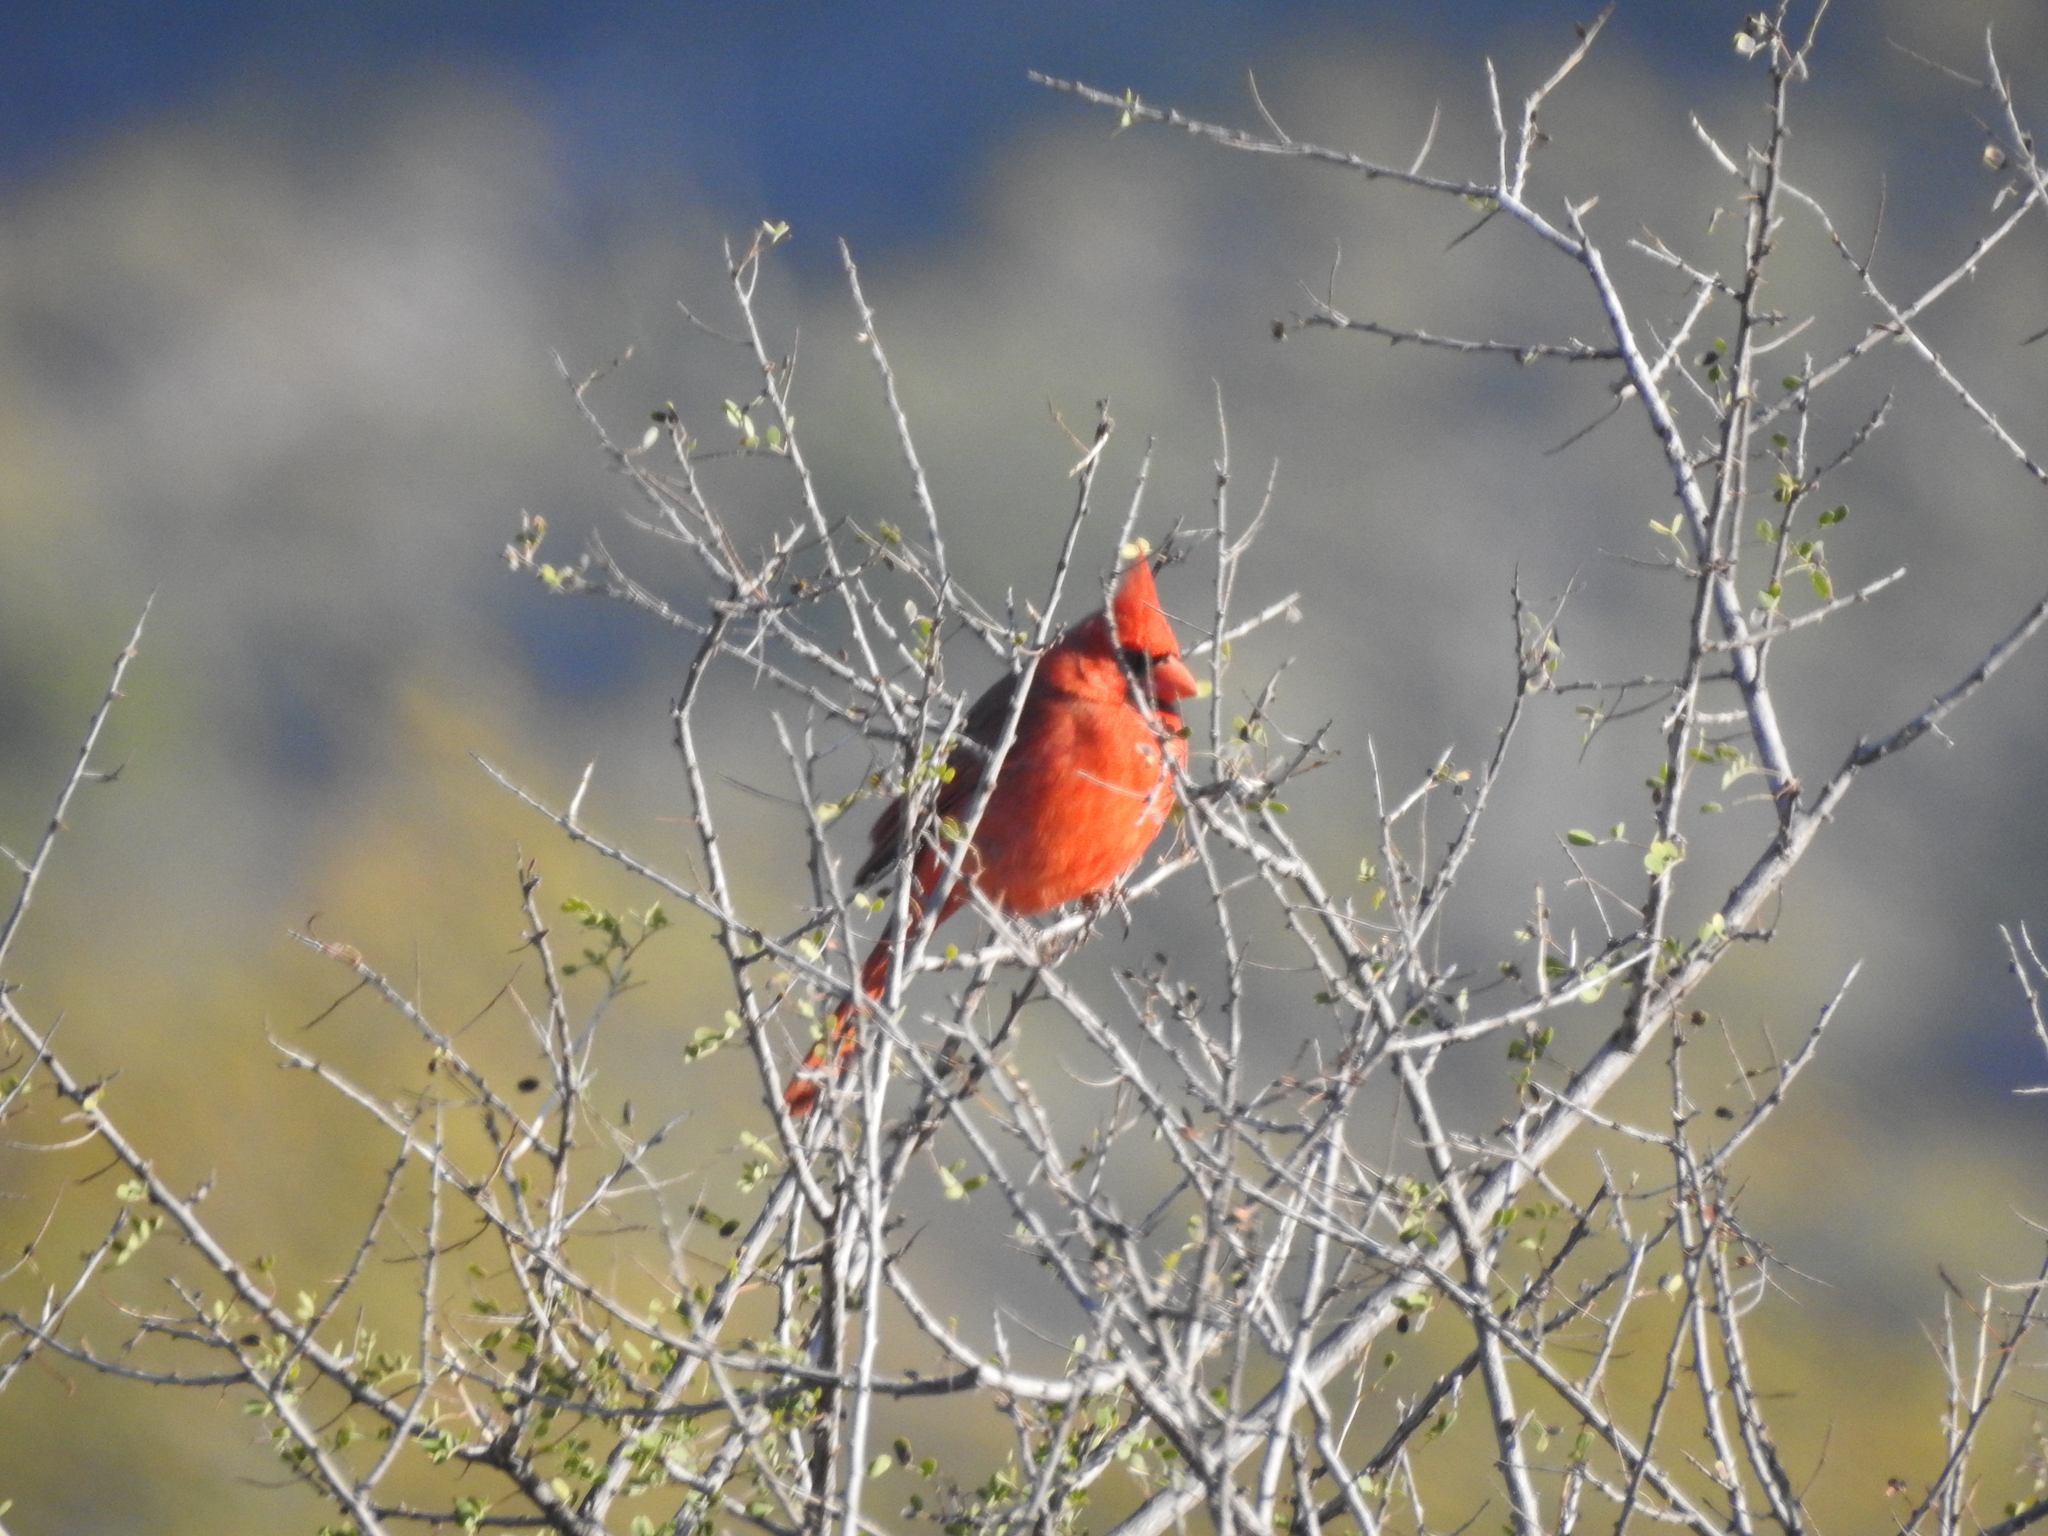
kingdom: Animalia
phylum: Chordata
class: Aves
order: Passeriformes
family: Cardinalidae
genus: Cardinalis
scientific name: Cardinalis cardinalis
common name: Northern cardinal
